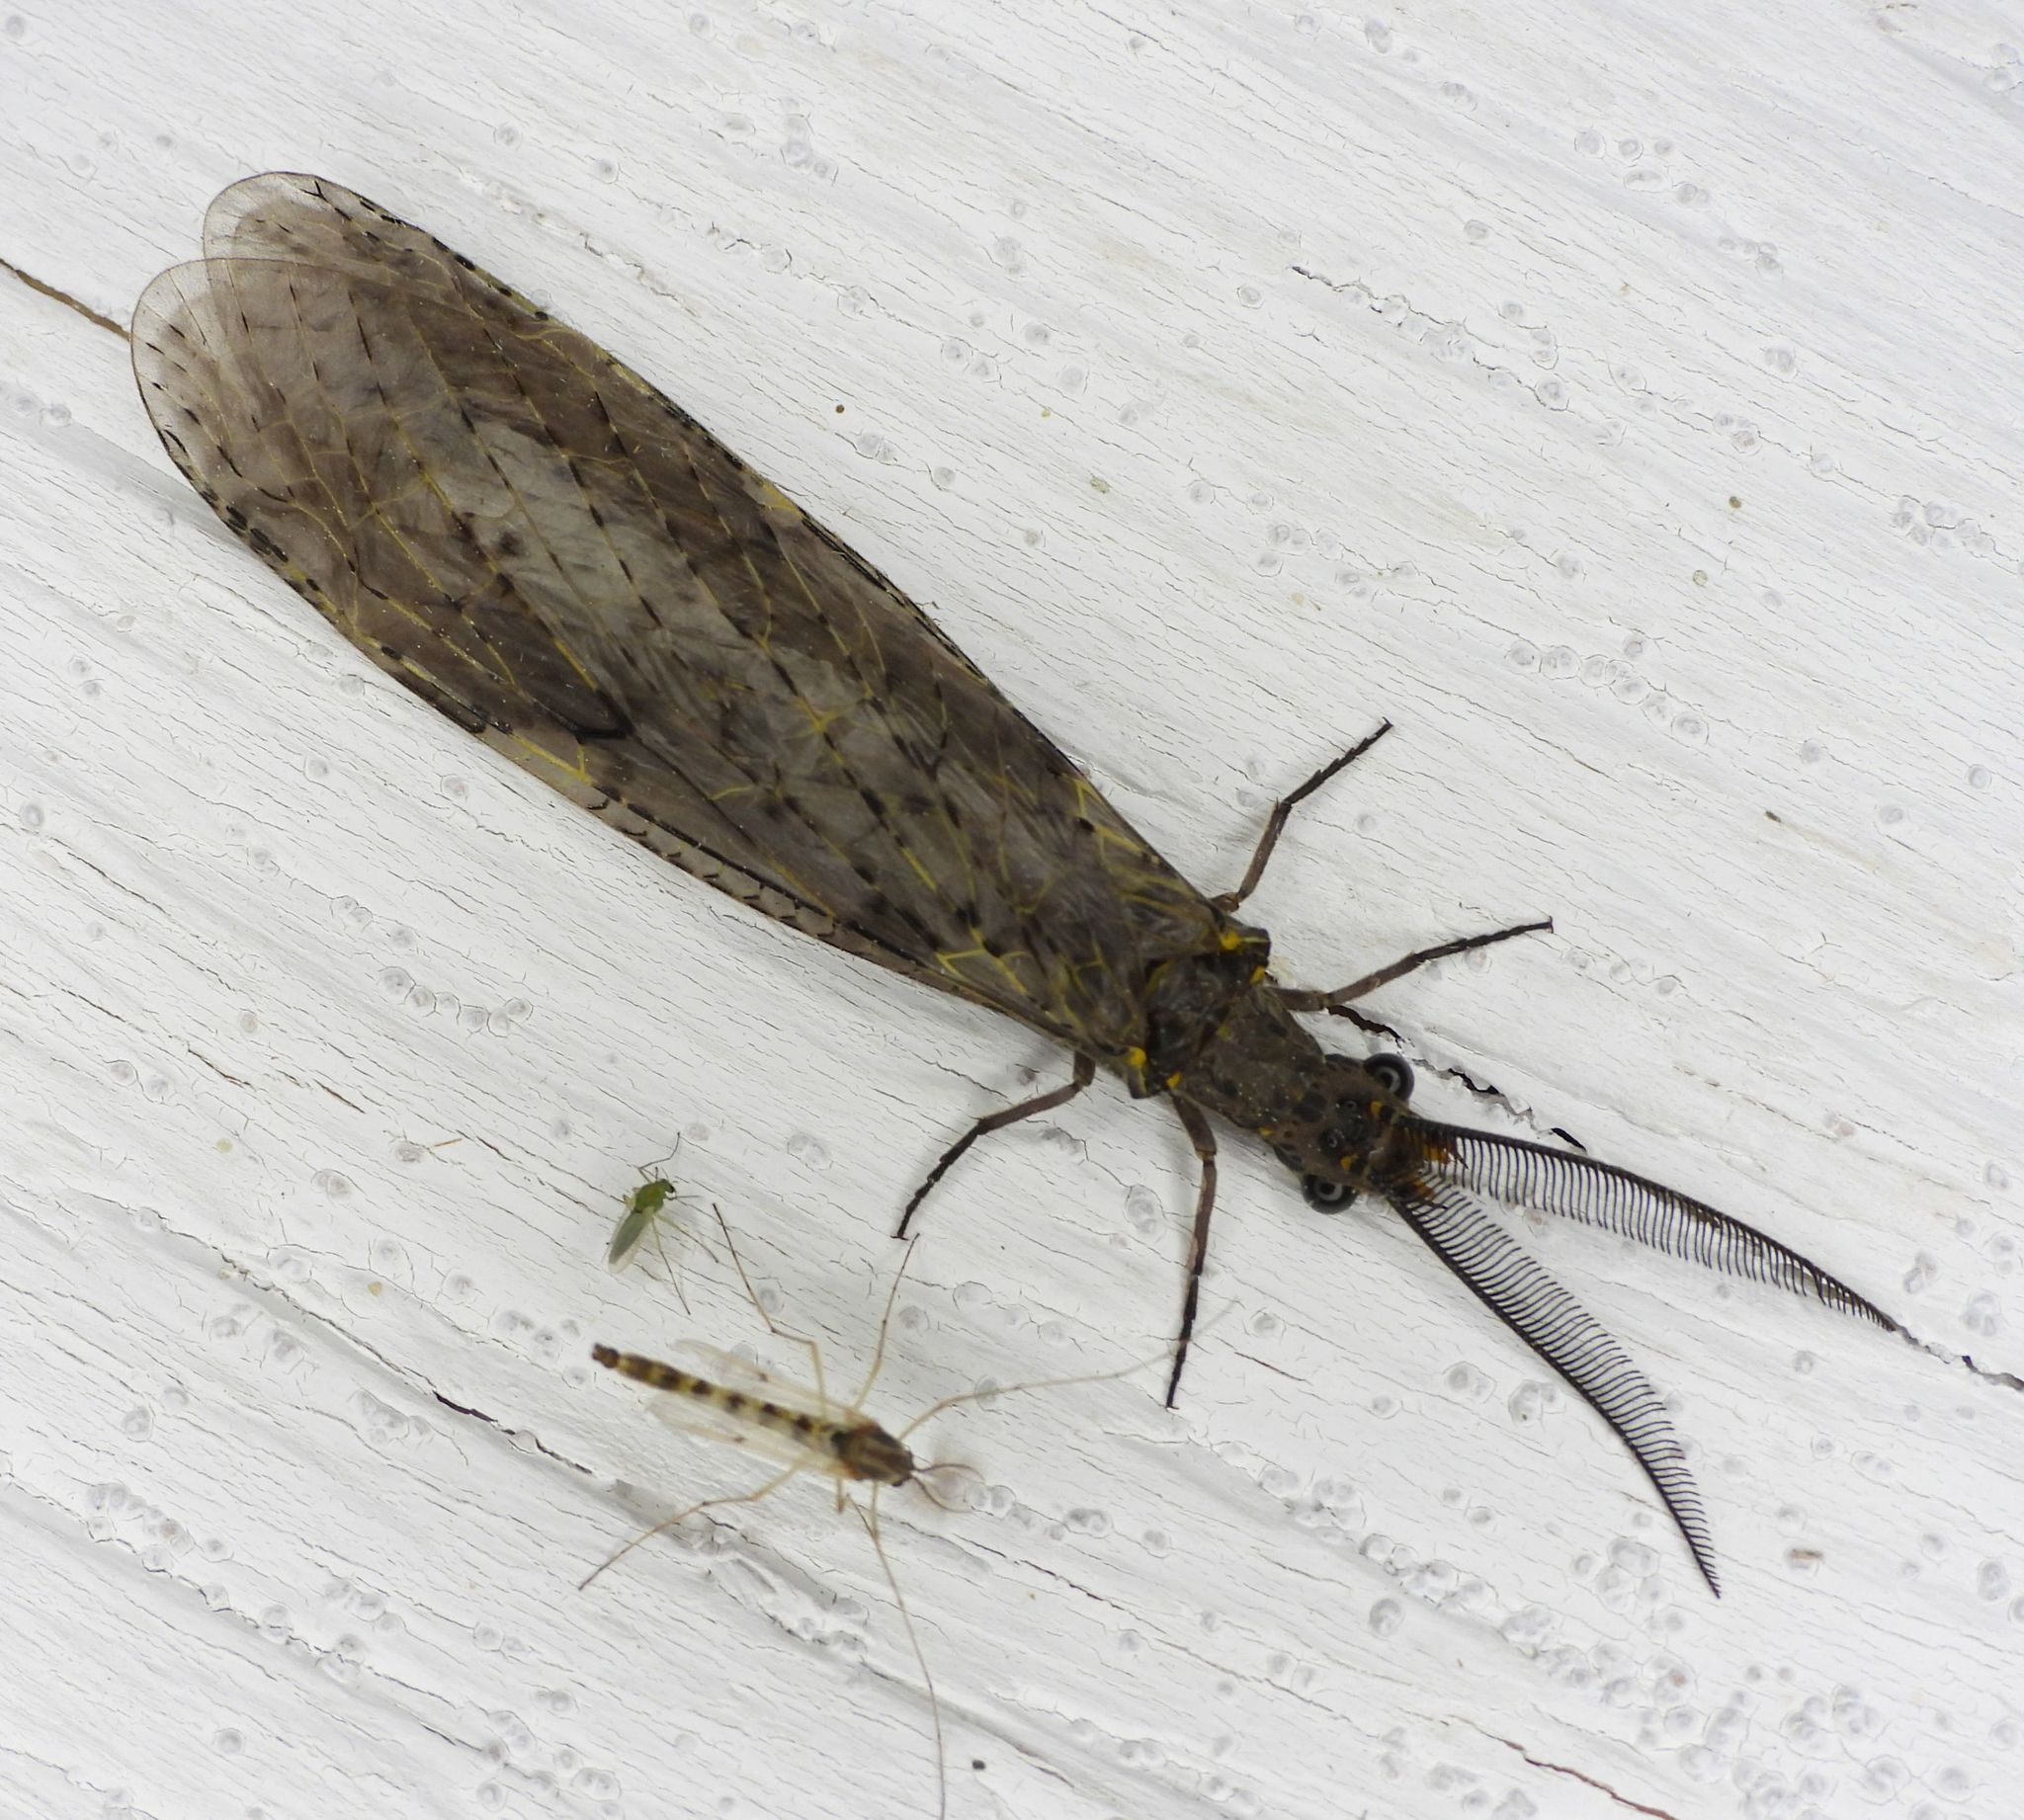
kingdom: Animalia
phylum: Arthropoda
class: Insecta
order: Megaloptera
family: Corydalidae
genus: Chauliodes
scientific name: Chauliodes rastricornis
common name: Spring fishfly
